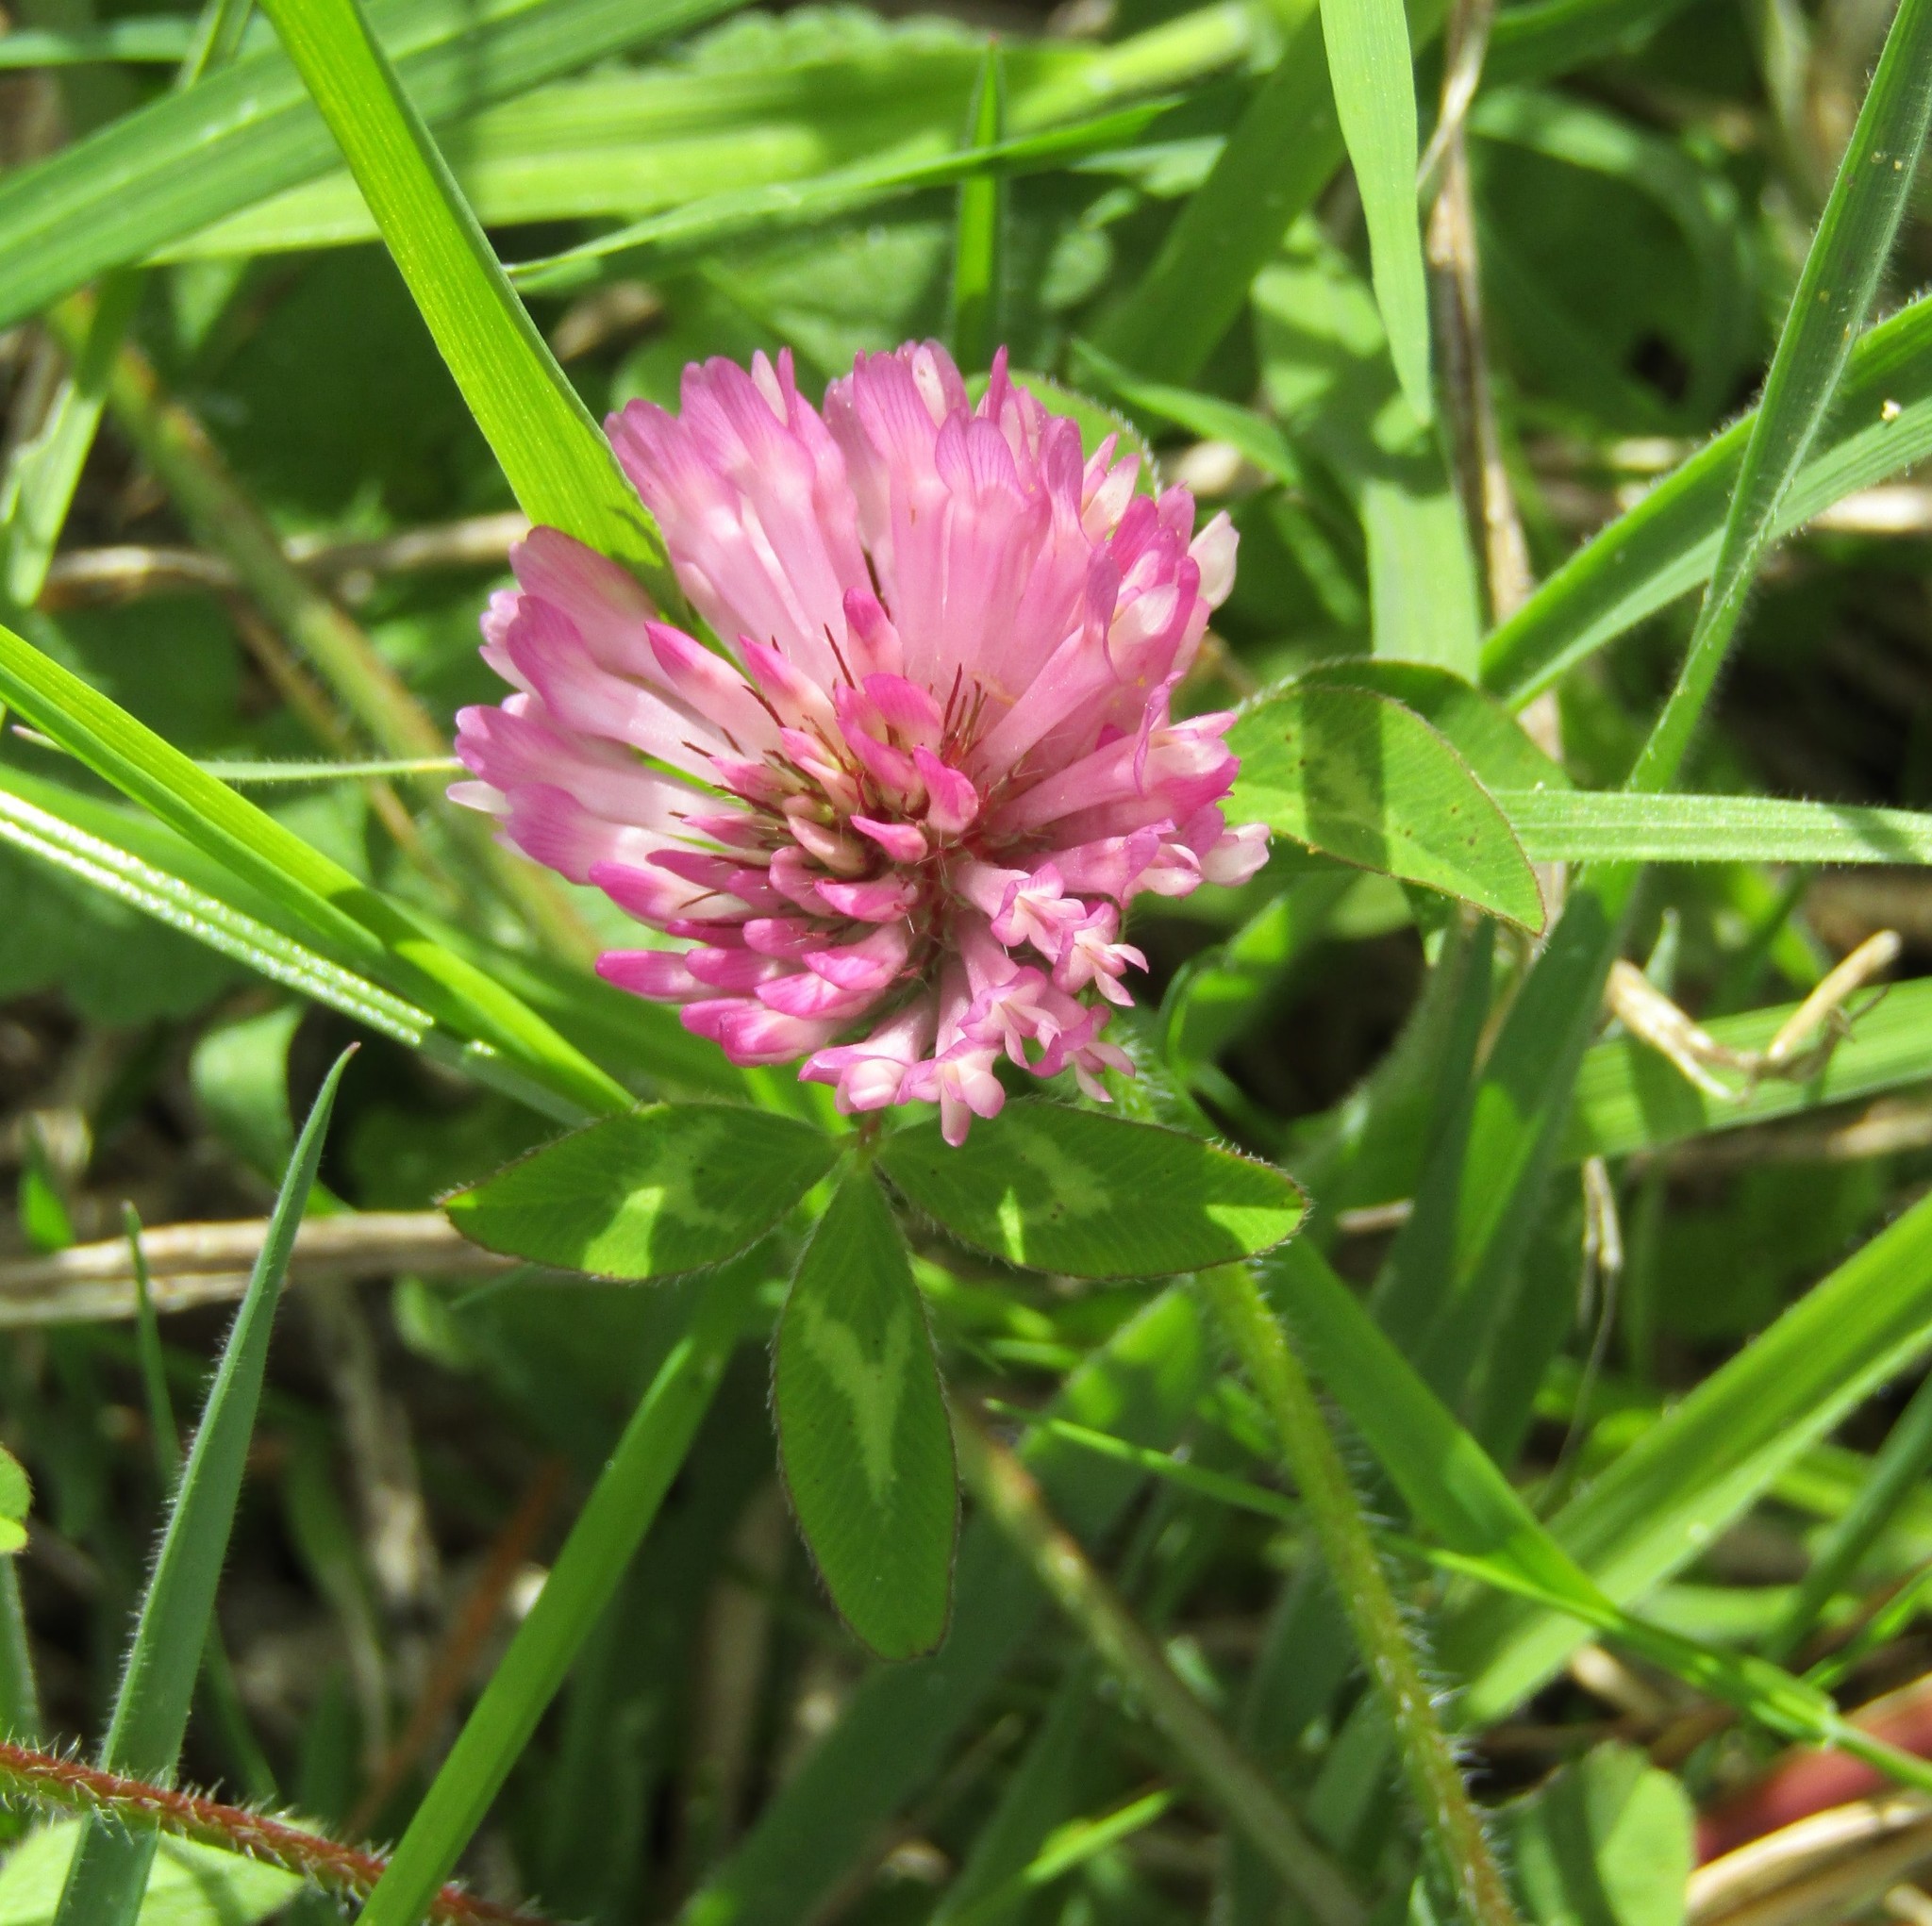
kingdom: Plantae
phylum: Tracheophyta
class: Magnoliopsida
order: Fabales
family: Fabaceae
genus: Trifolium
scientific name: Trifolium pratense
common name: Red clover
